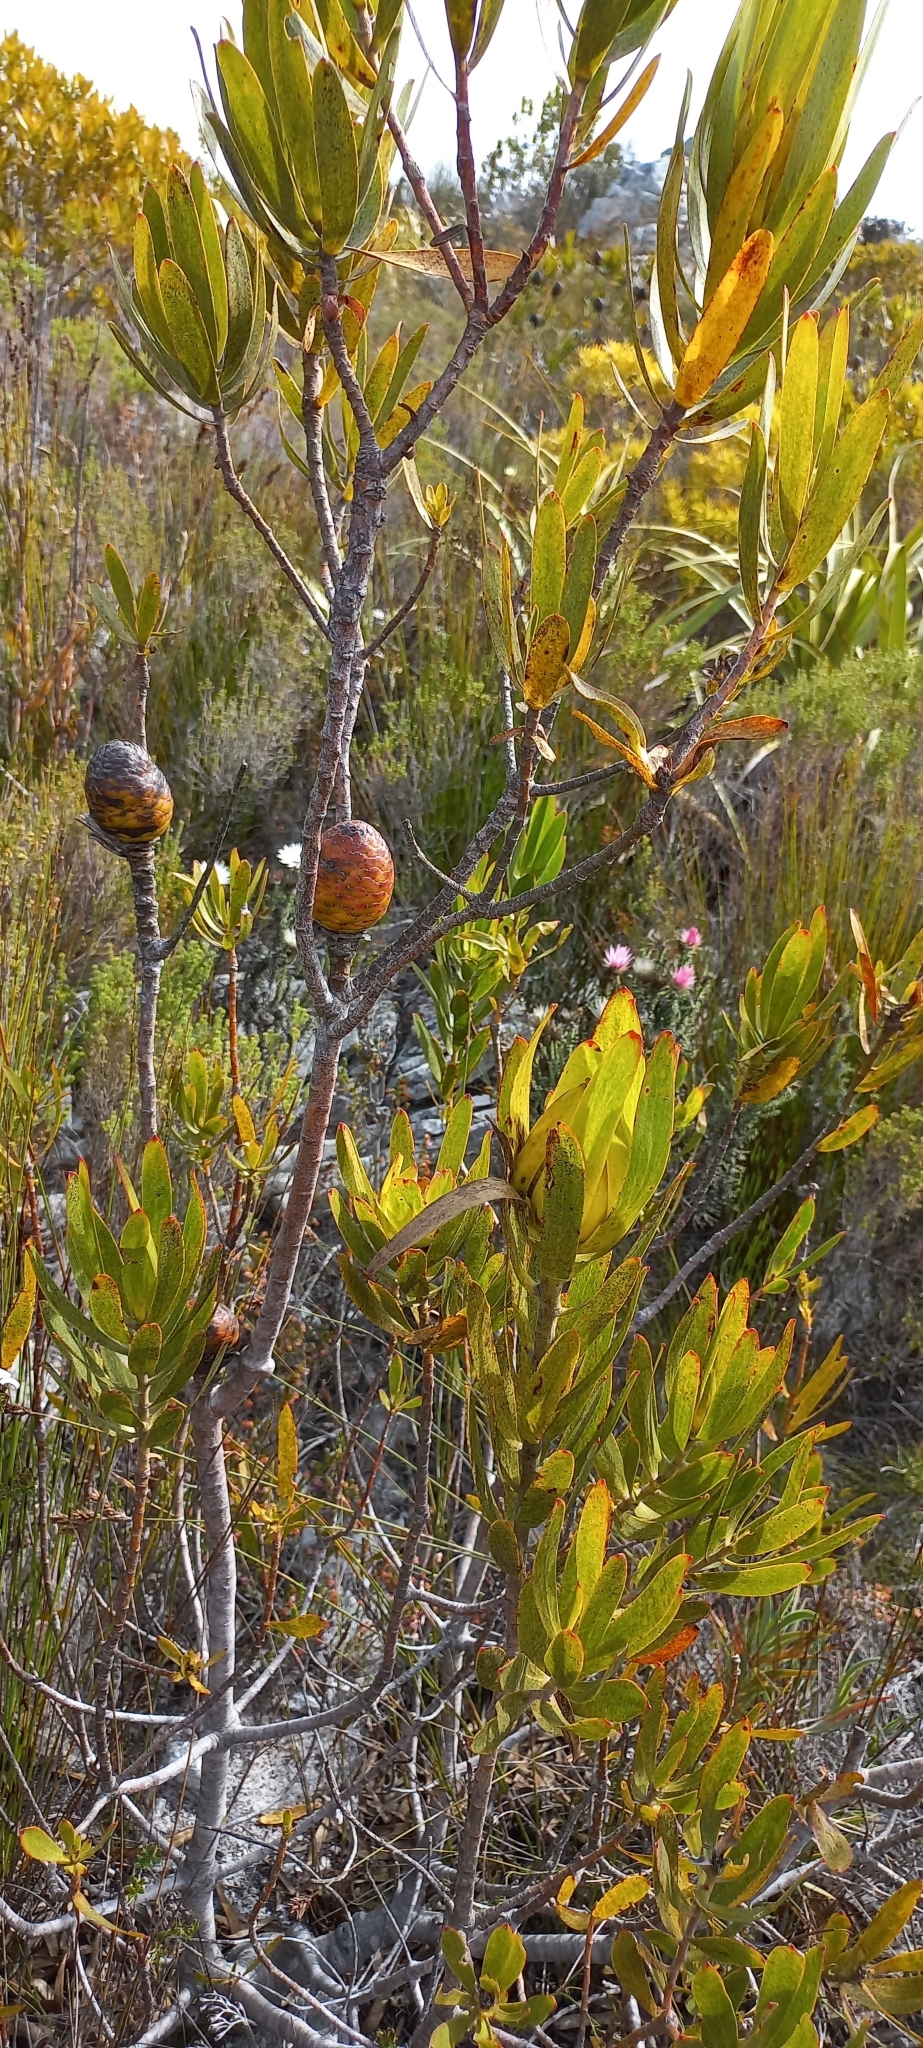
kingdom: Plantae
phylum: Tracheophyta
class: Magnoliopsida
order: Proteales
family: Proteaceae
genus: Leucadendron
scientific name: Leucadendron laureolum
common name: Golden sunshinebush
